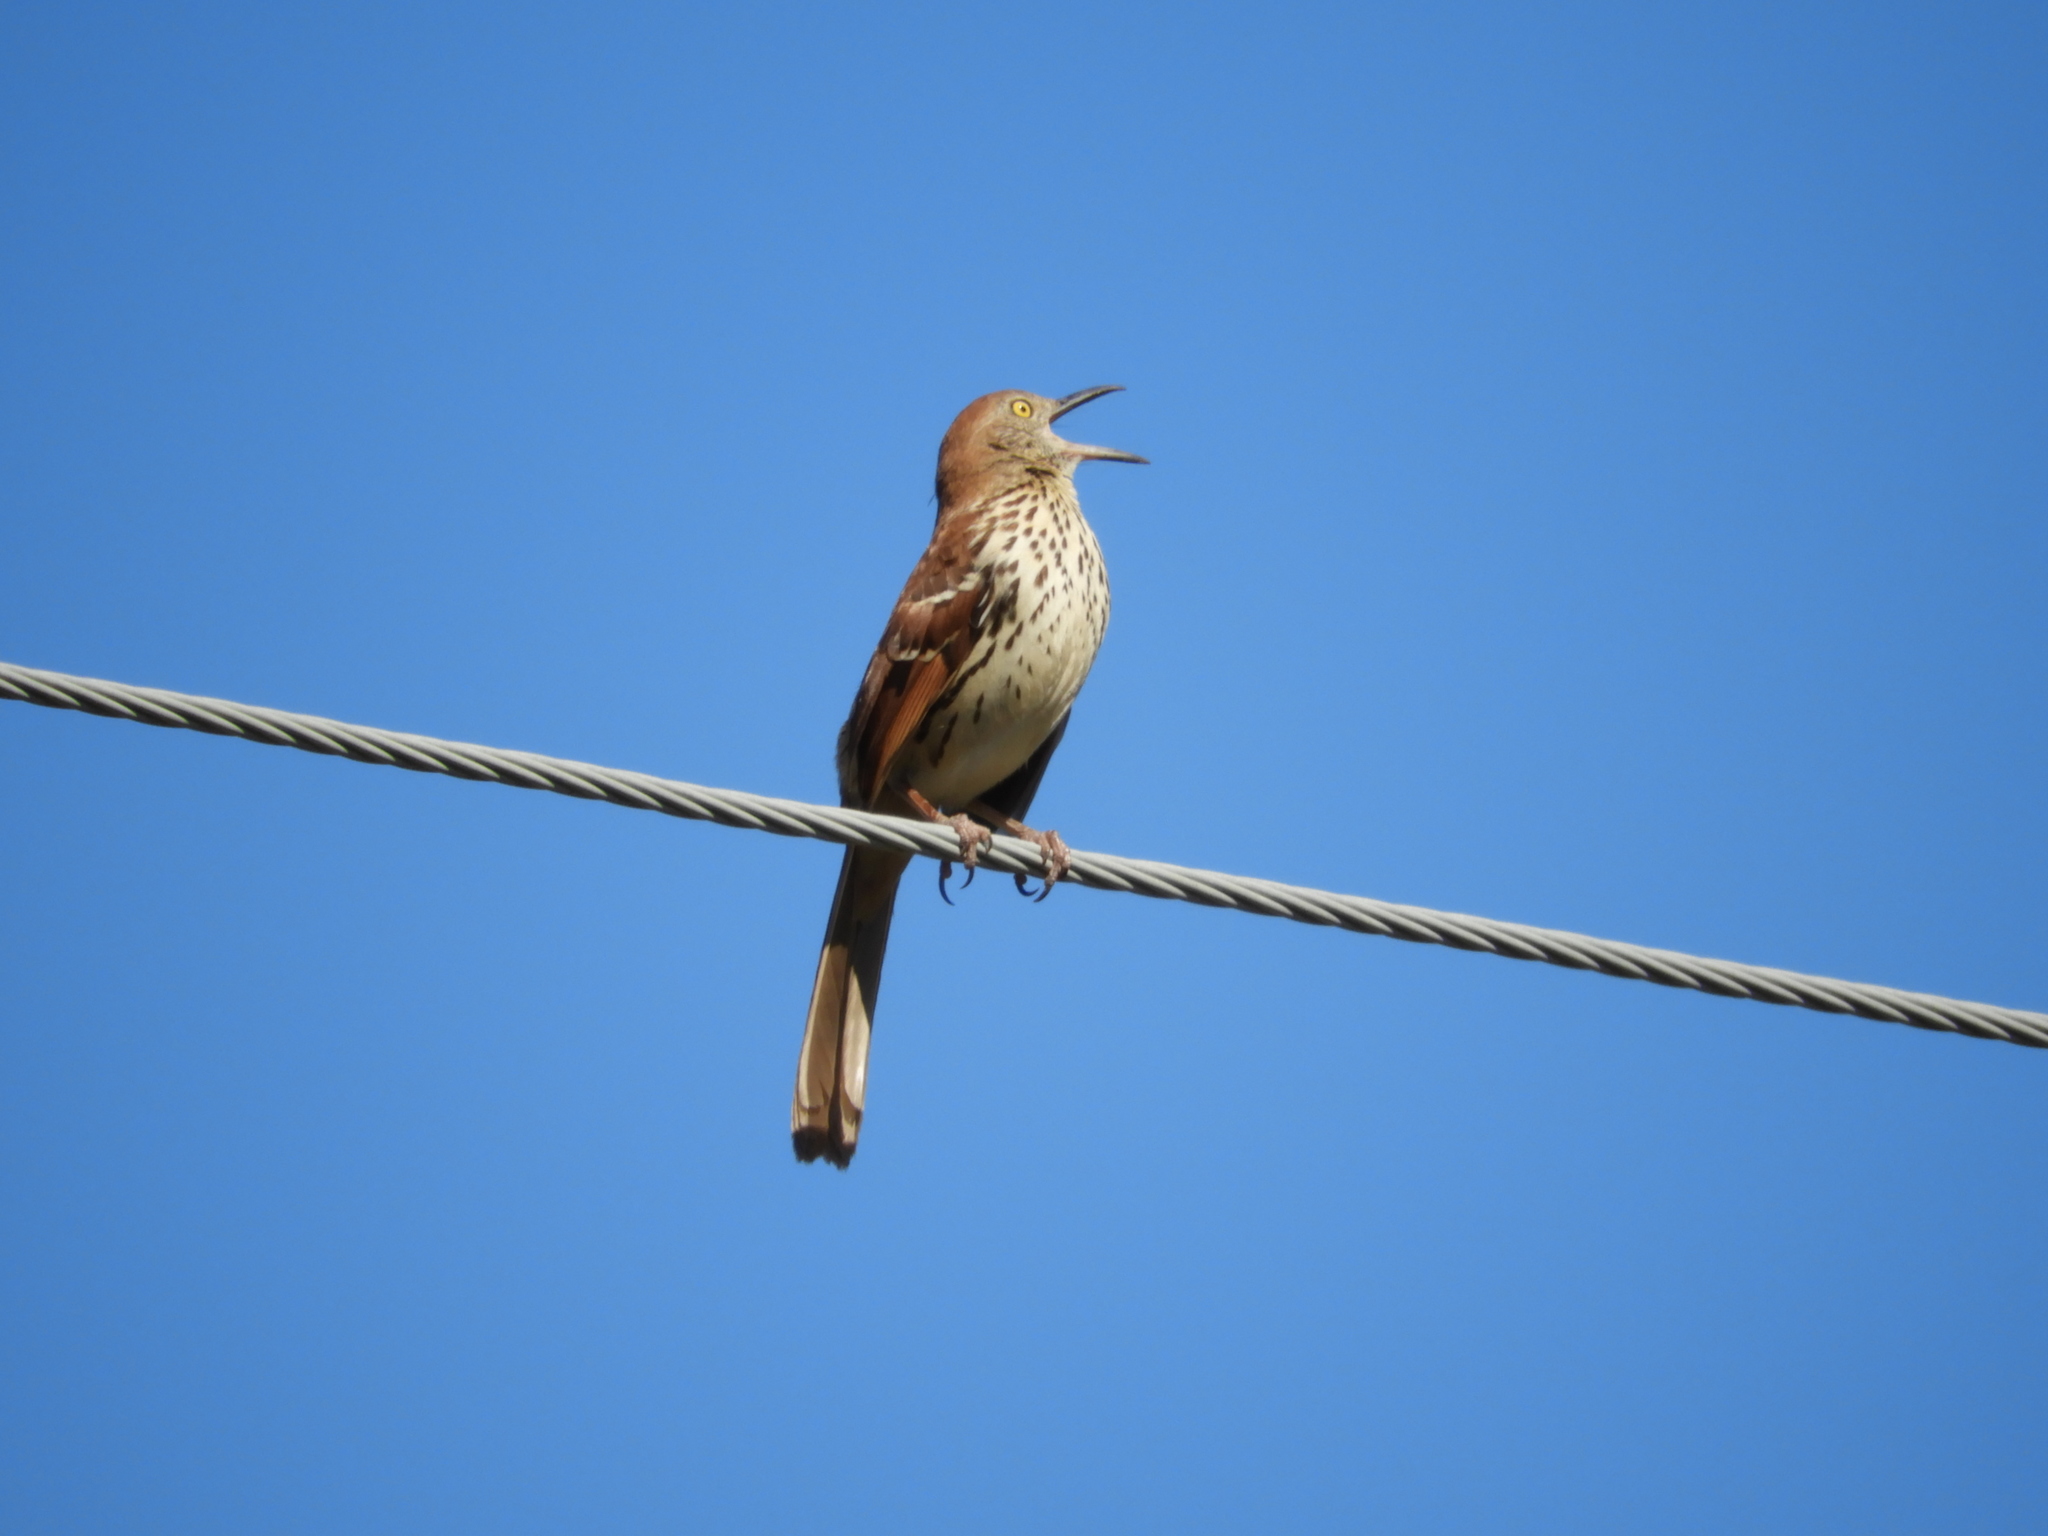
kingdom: Animalia
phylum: Chordata
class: Aves
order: Passeriformes
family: Mimidae
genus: Toxostoma
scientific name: Toxostoma rufum
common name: Brown thrasher
